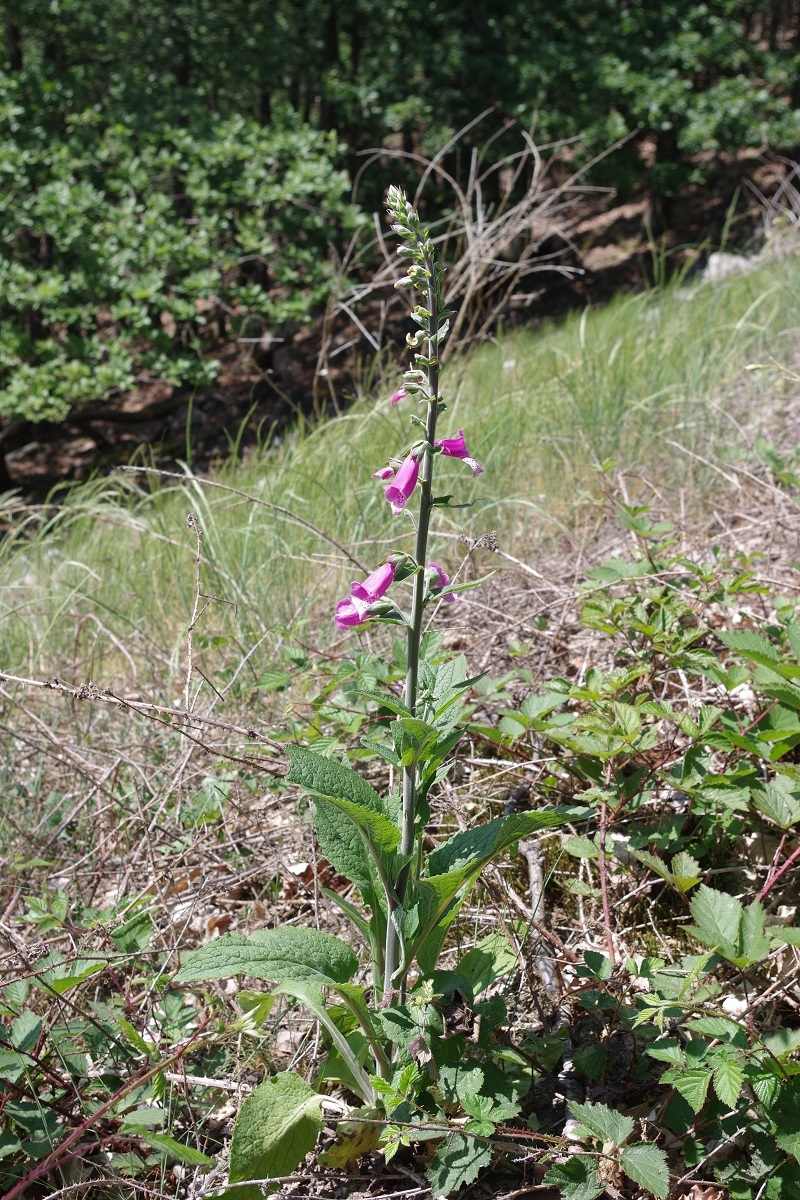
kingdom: Plantae
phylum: Tracheophyta
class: Magnoliopsida
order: Lamiales
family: Plantaginaceae
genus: Digitalis
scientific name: Digitalis purpurea
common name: Foxglove
